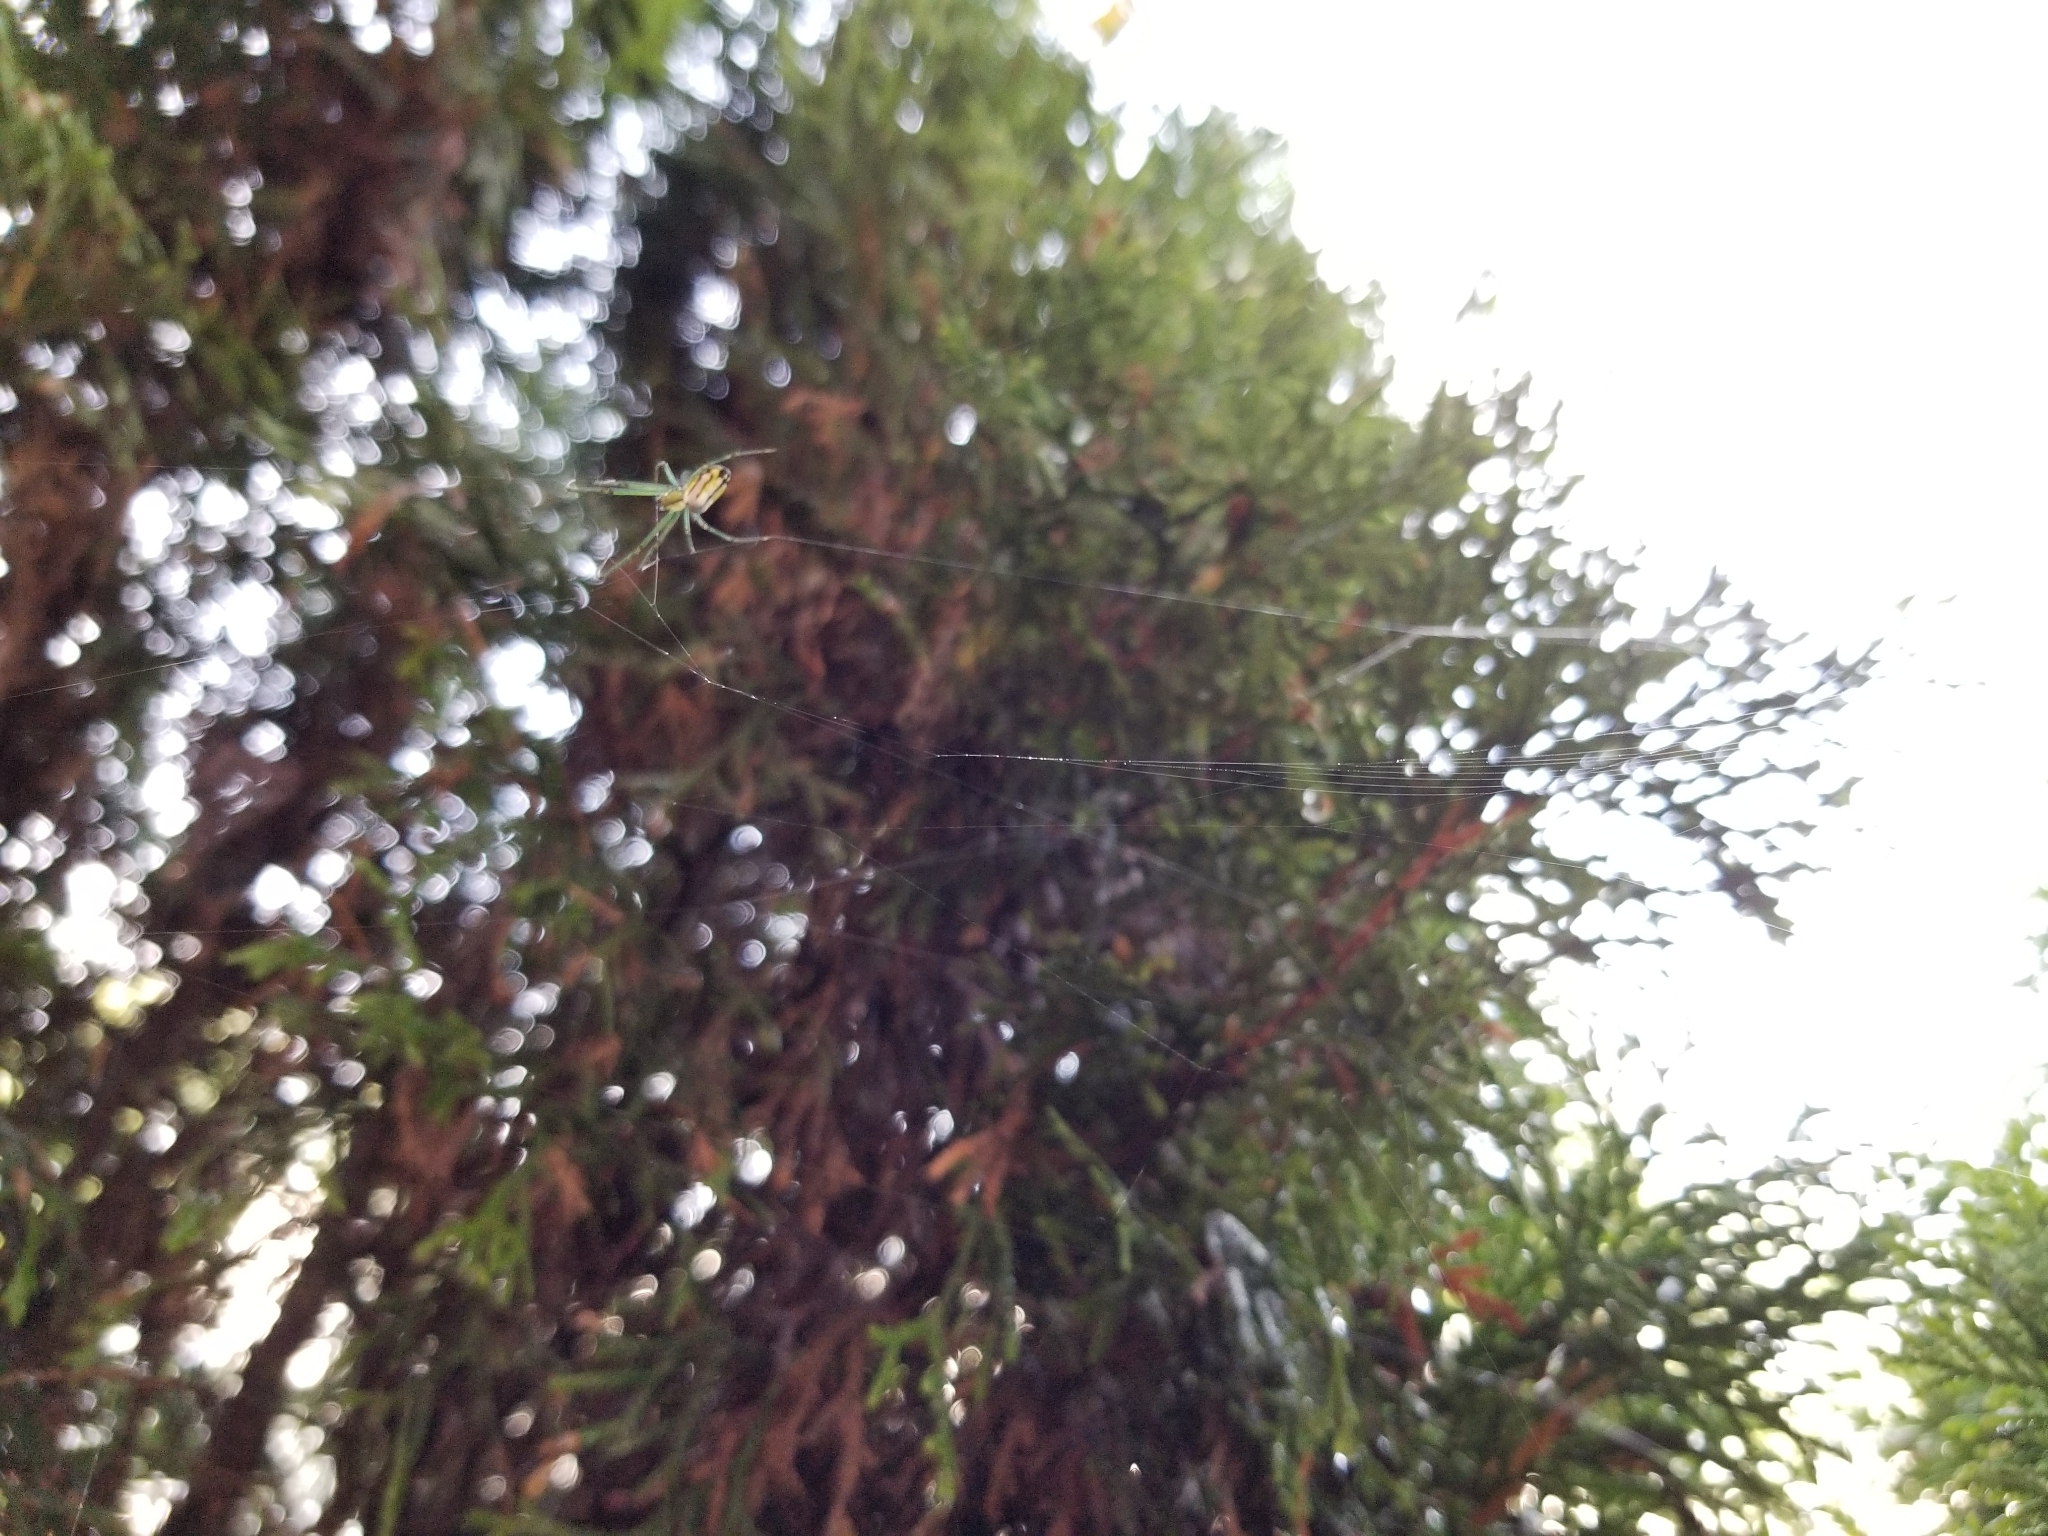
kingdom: Animalia
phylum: Arthropoda
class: Arachnida
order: Araneae
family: Tetragnathidae
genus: Leucauge
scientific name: Leucauge venusta
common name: Longjawed orb weavers
